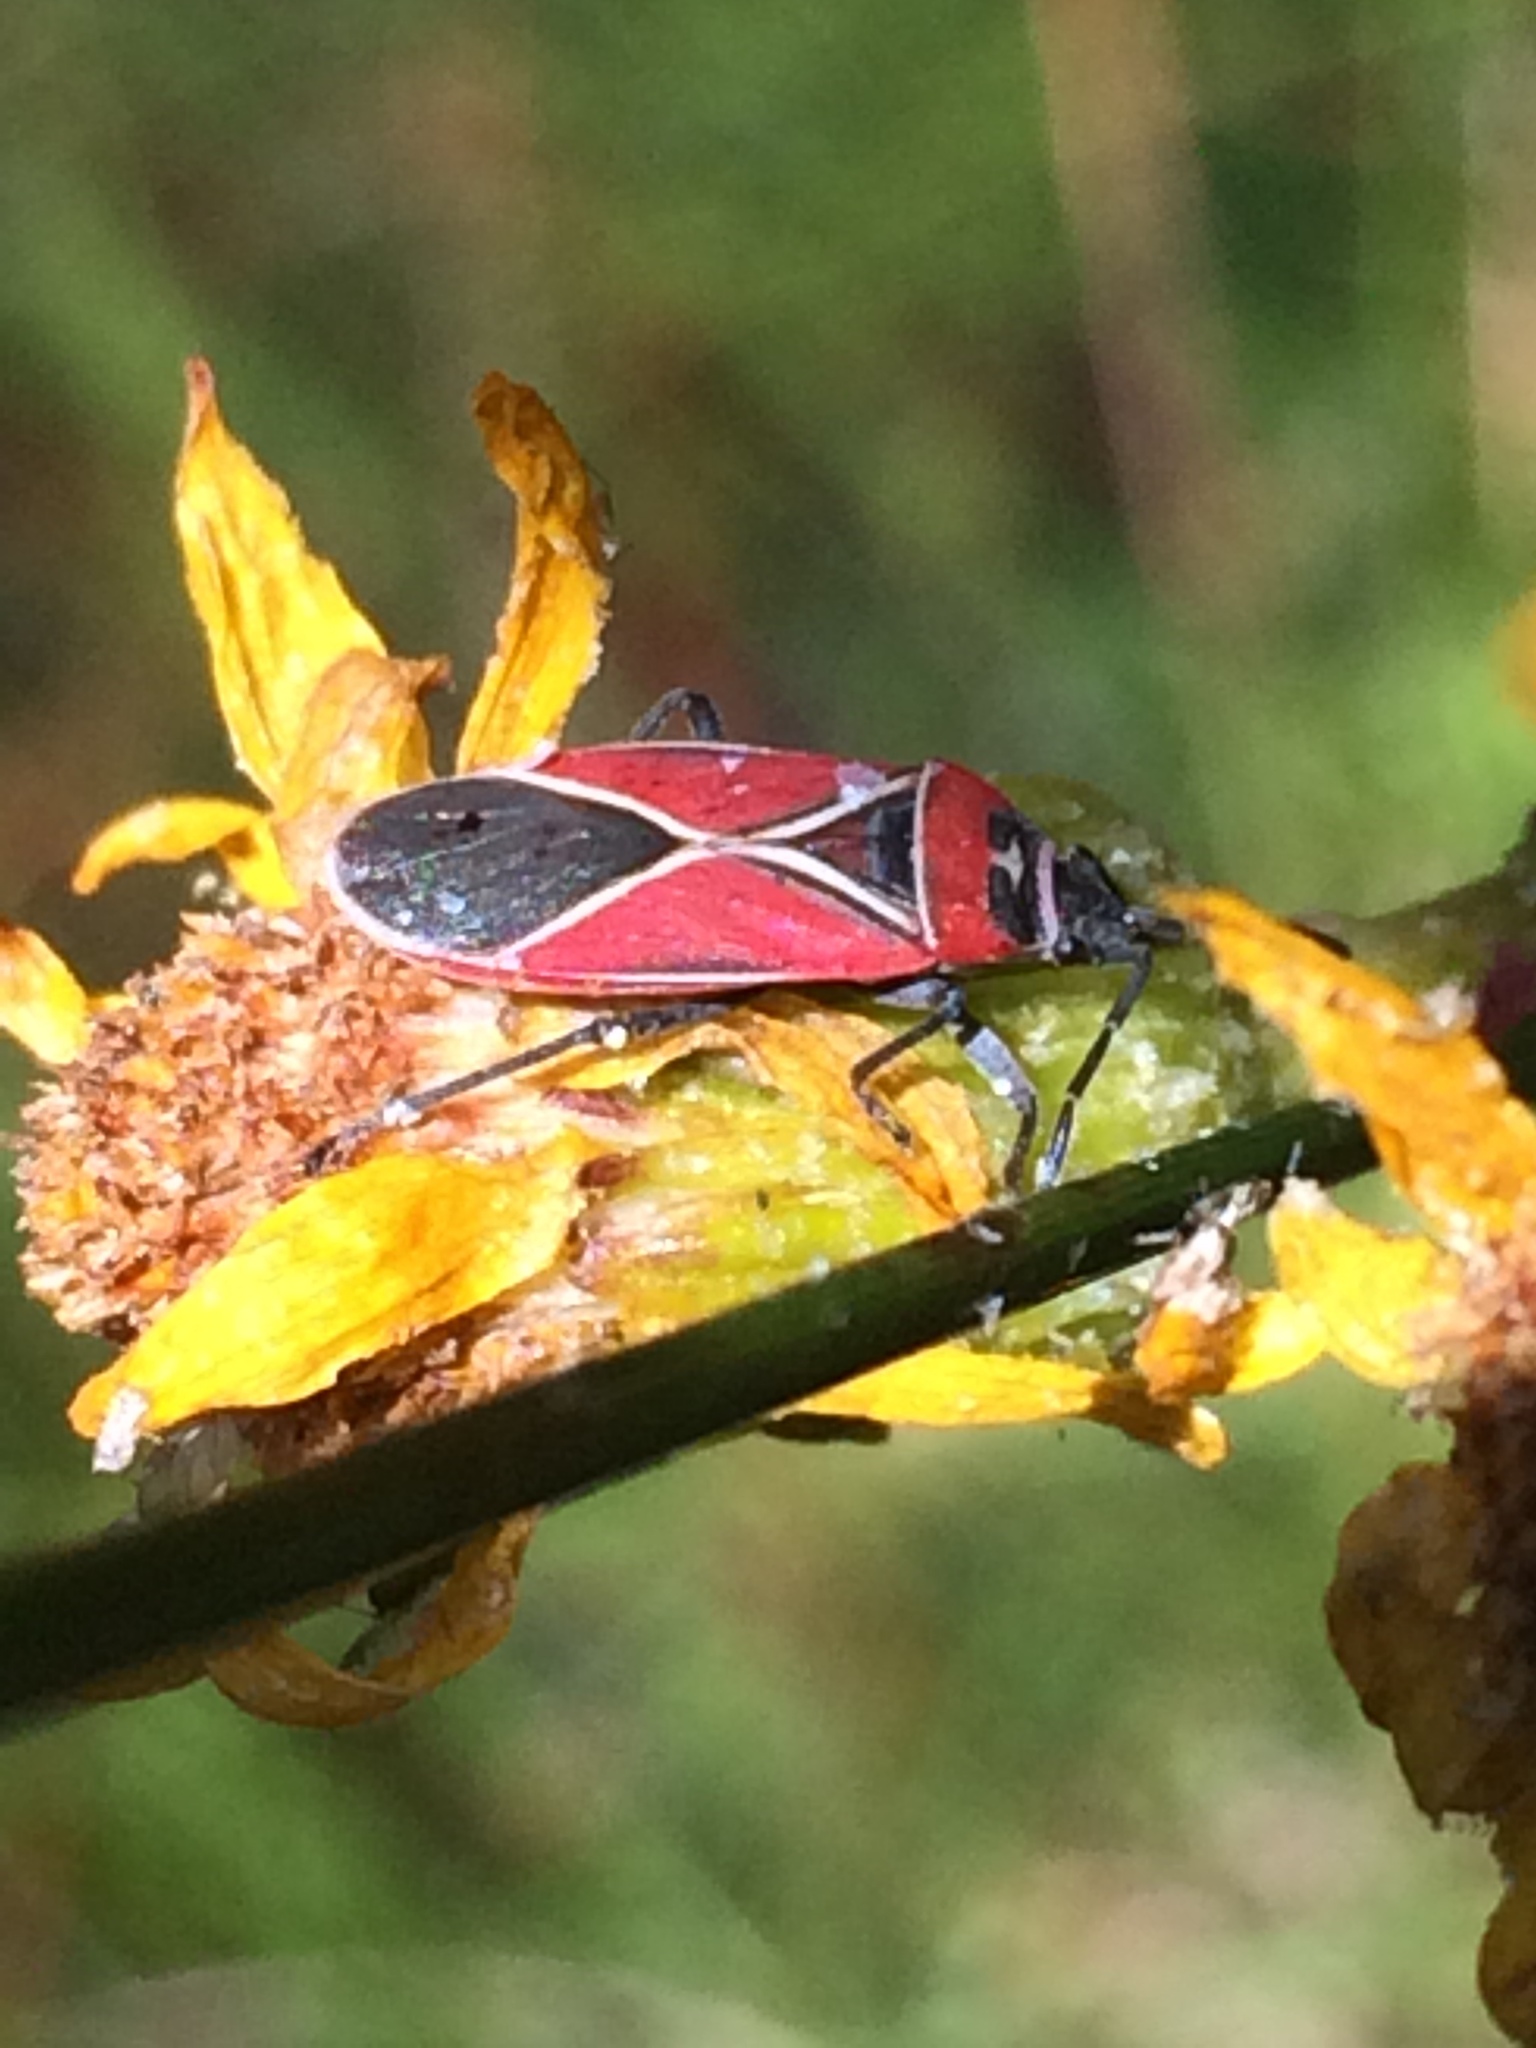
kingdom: Animalia
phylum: Arthropoda
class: Insecta
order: Hemiptera
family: Lygaeidae
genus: Neacoryphus
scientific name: Neacoryphus bicrucis
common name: Lygaeid bug
